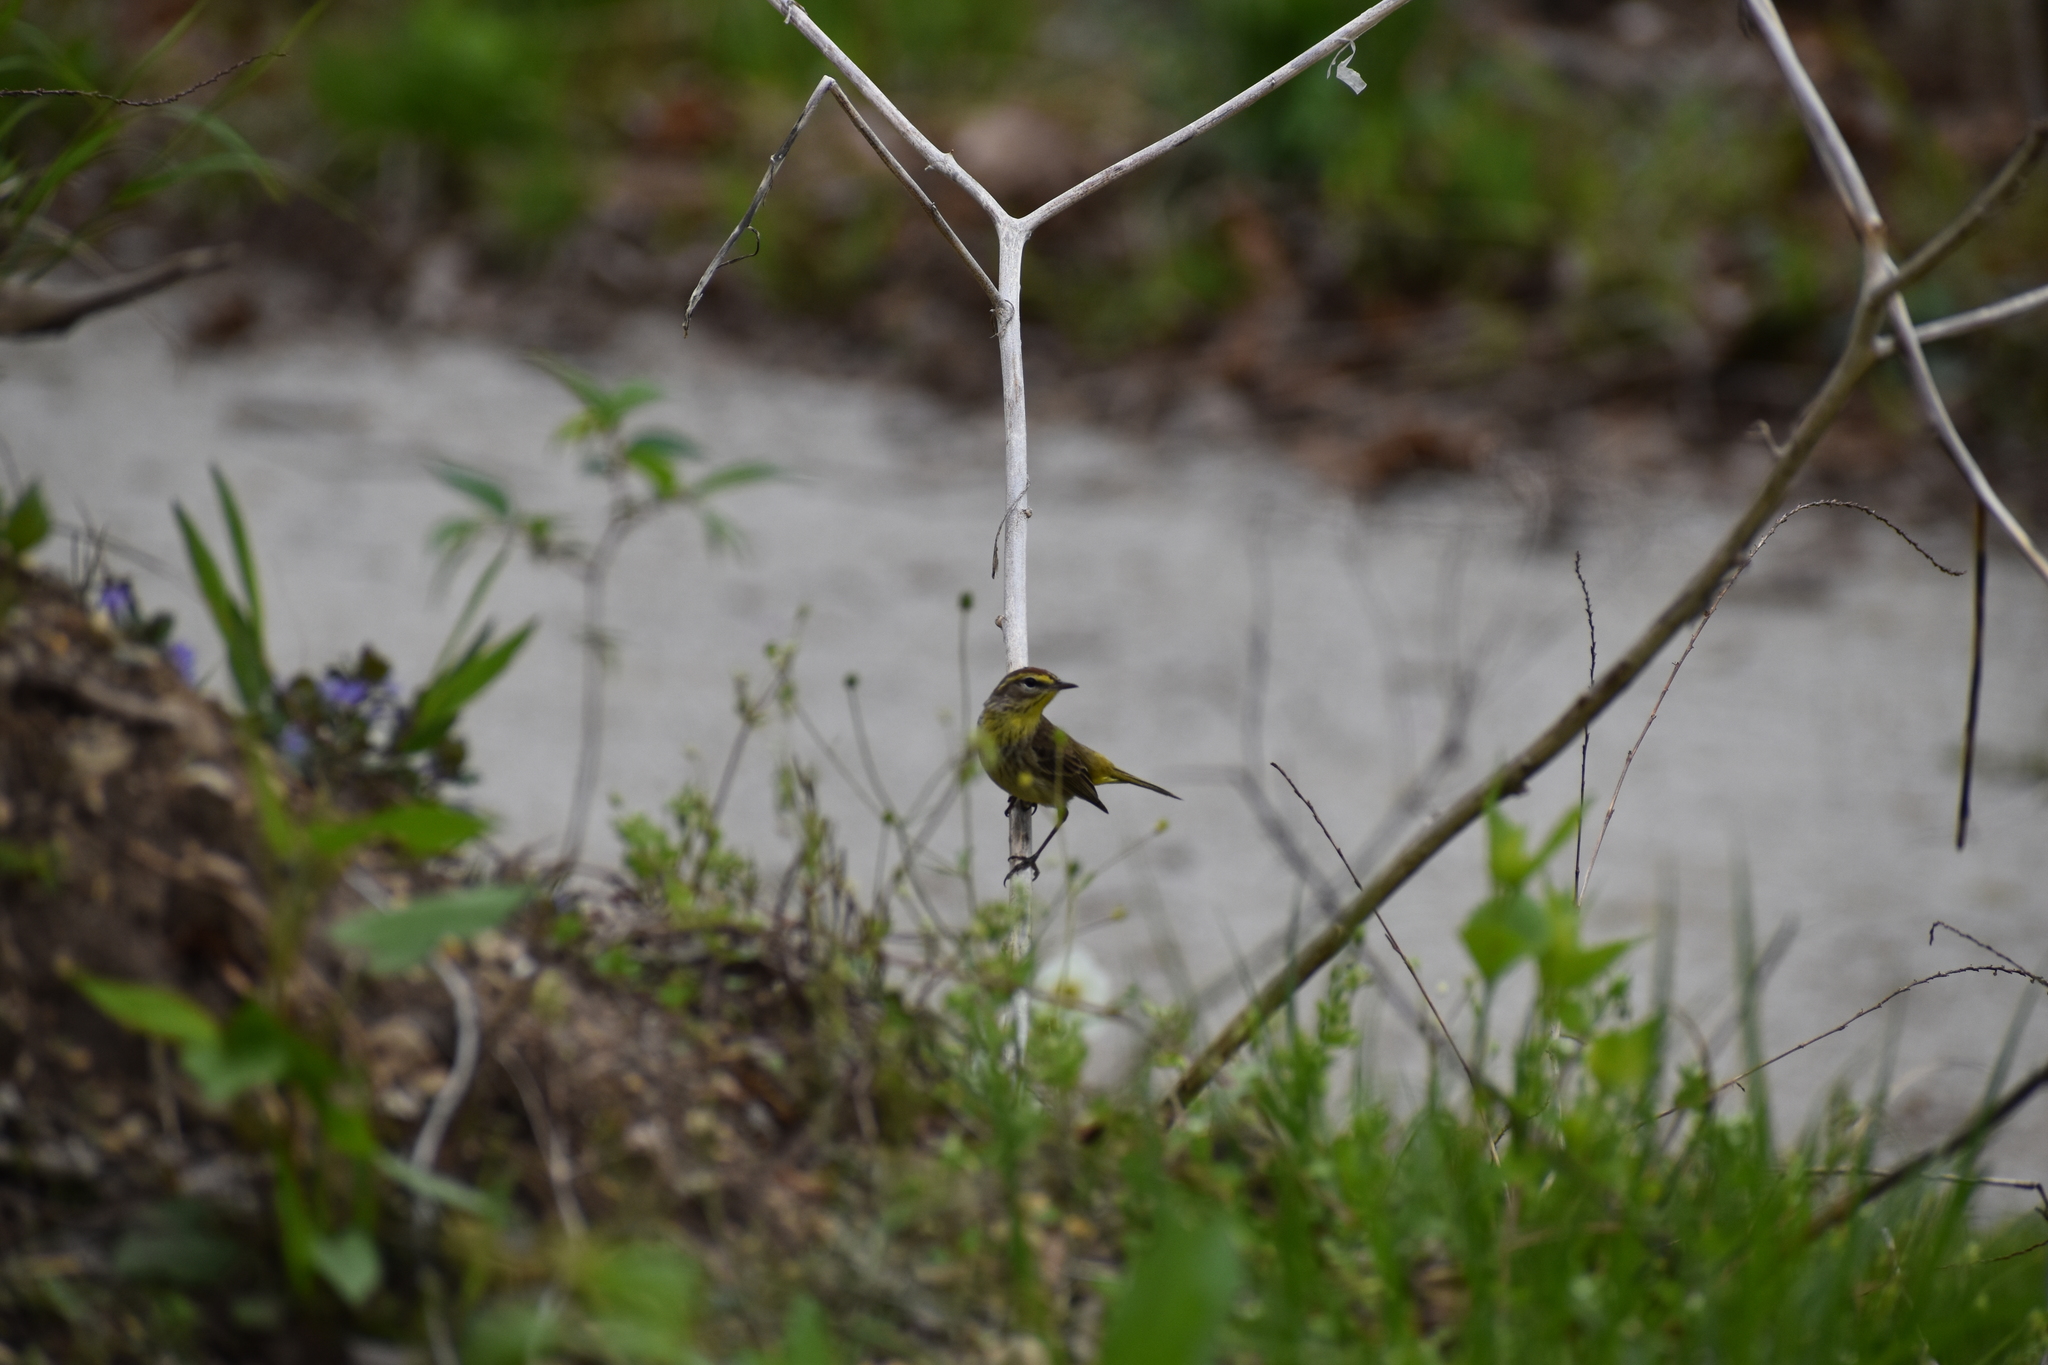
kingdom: Animalia
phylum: Chordata
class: Aves
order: Passeriformes
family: Parulidae
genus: Setophaga
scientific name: Setophaga palmarum
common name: Palm warbler
